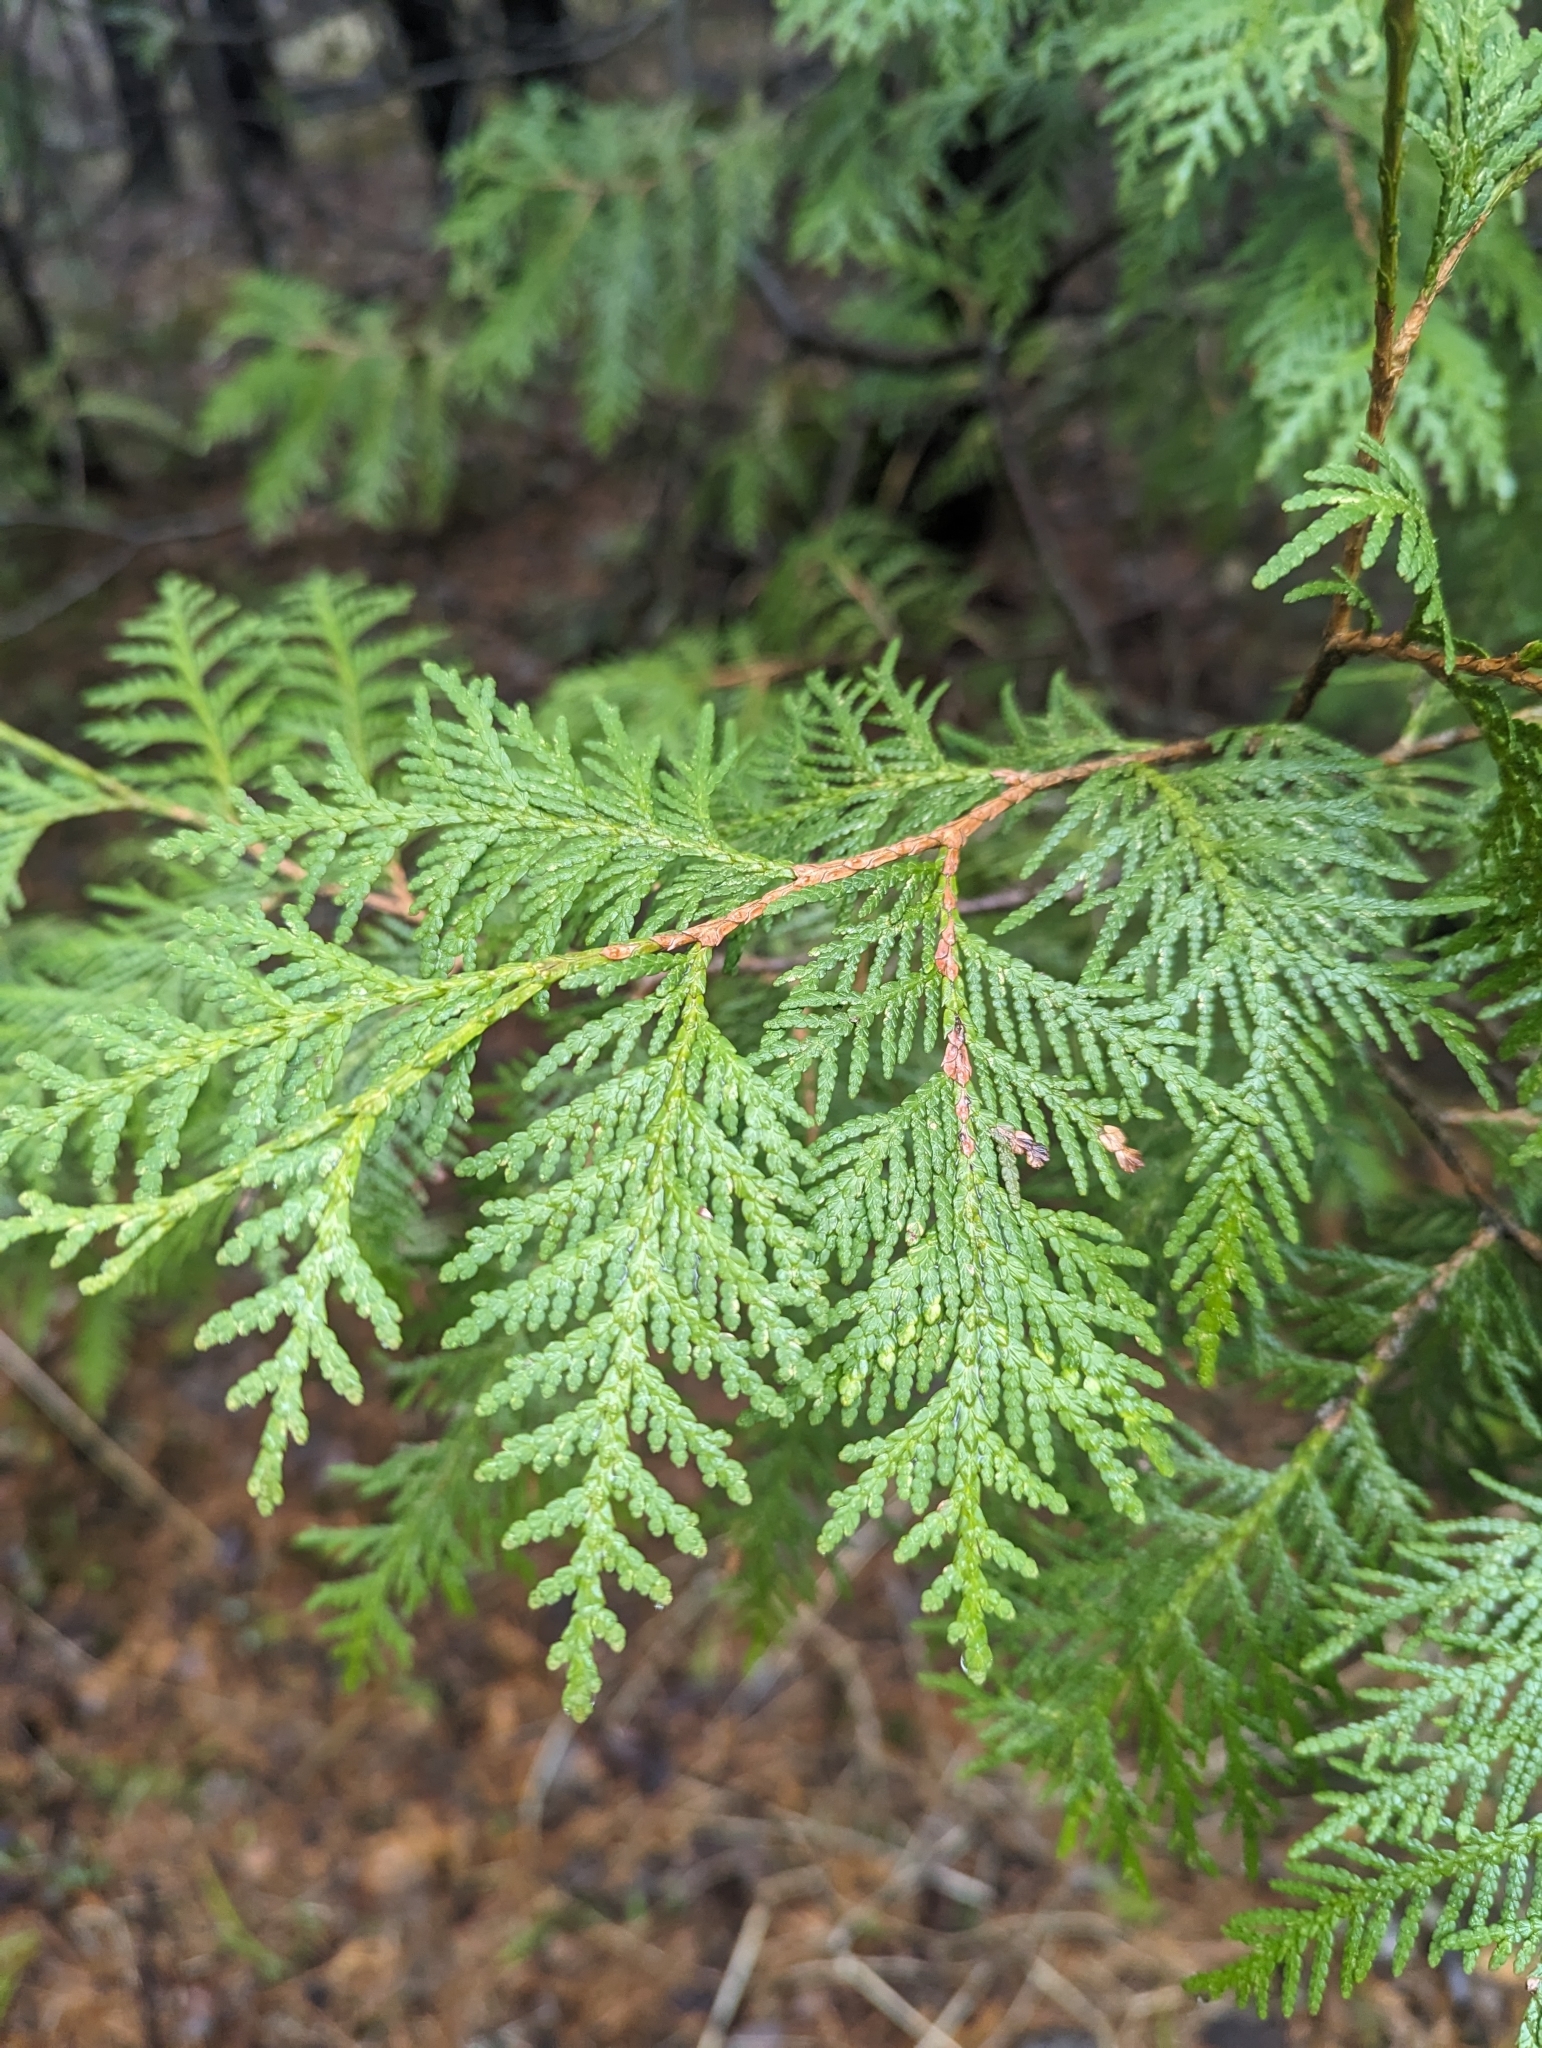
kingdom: Plantae
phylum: Tracheophyta
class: Pinopsida
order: Pinales
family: Cupressaceae
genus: Thuja
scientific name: Thuja occidentalis
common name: Northern white-cedar
